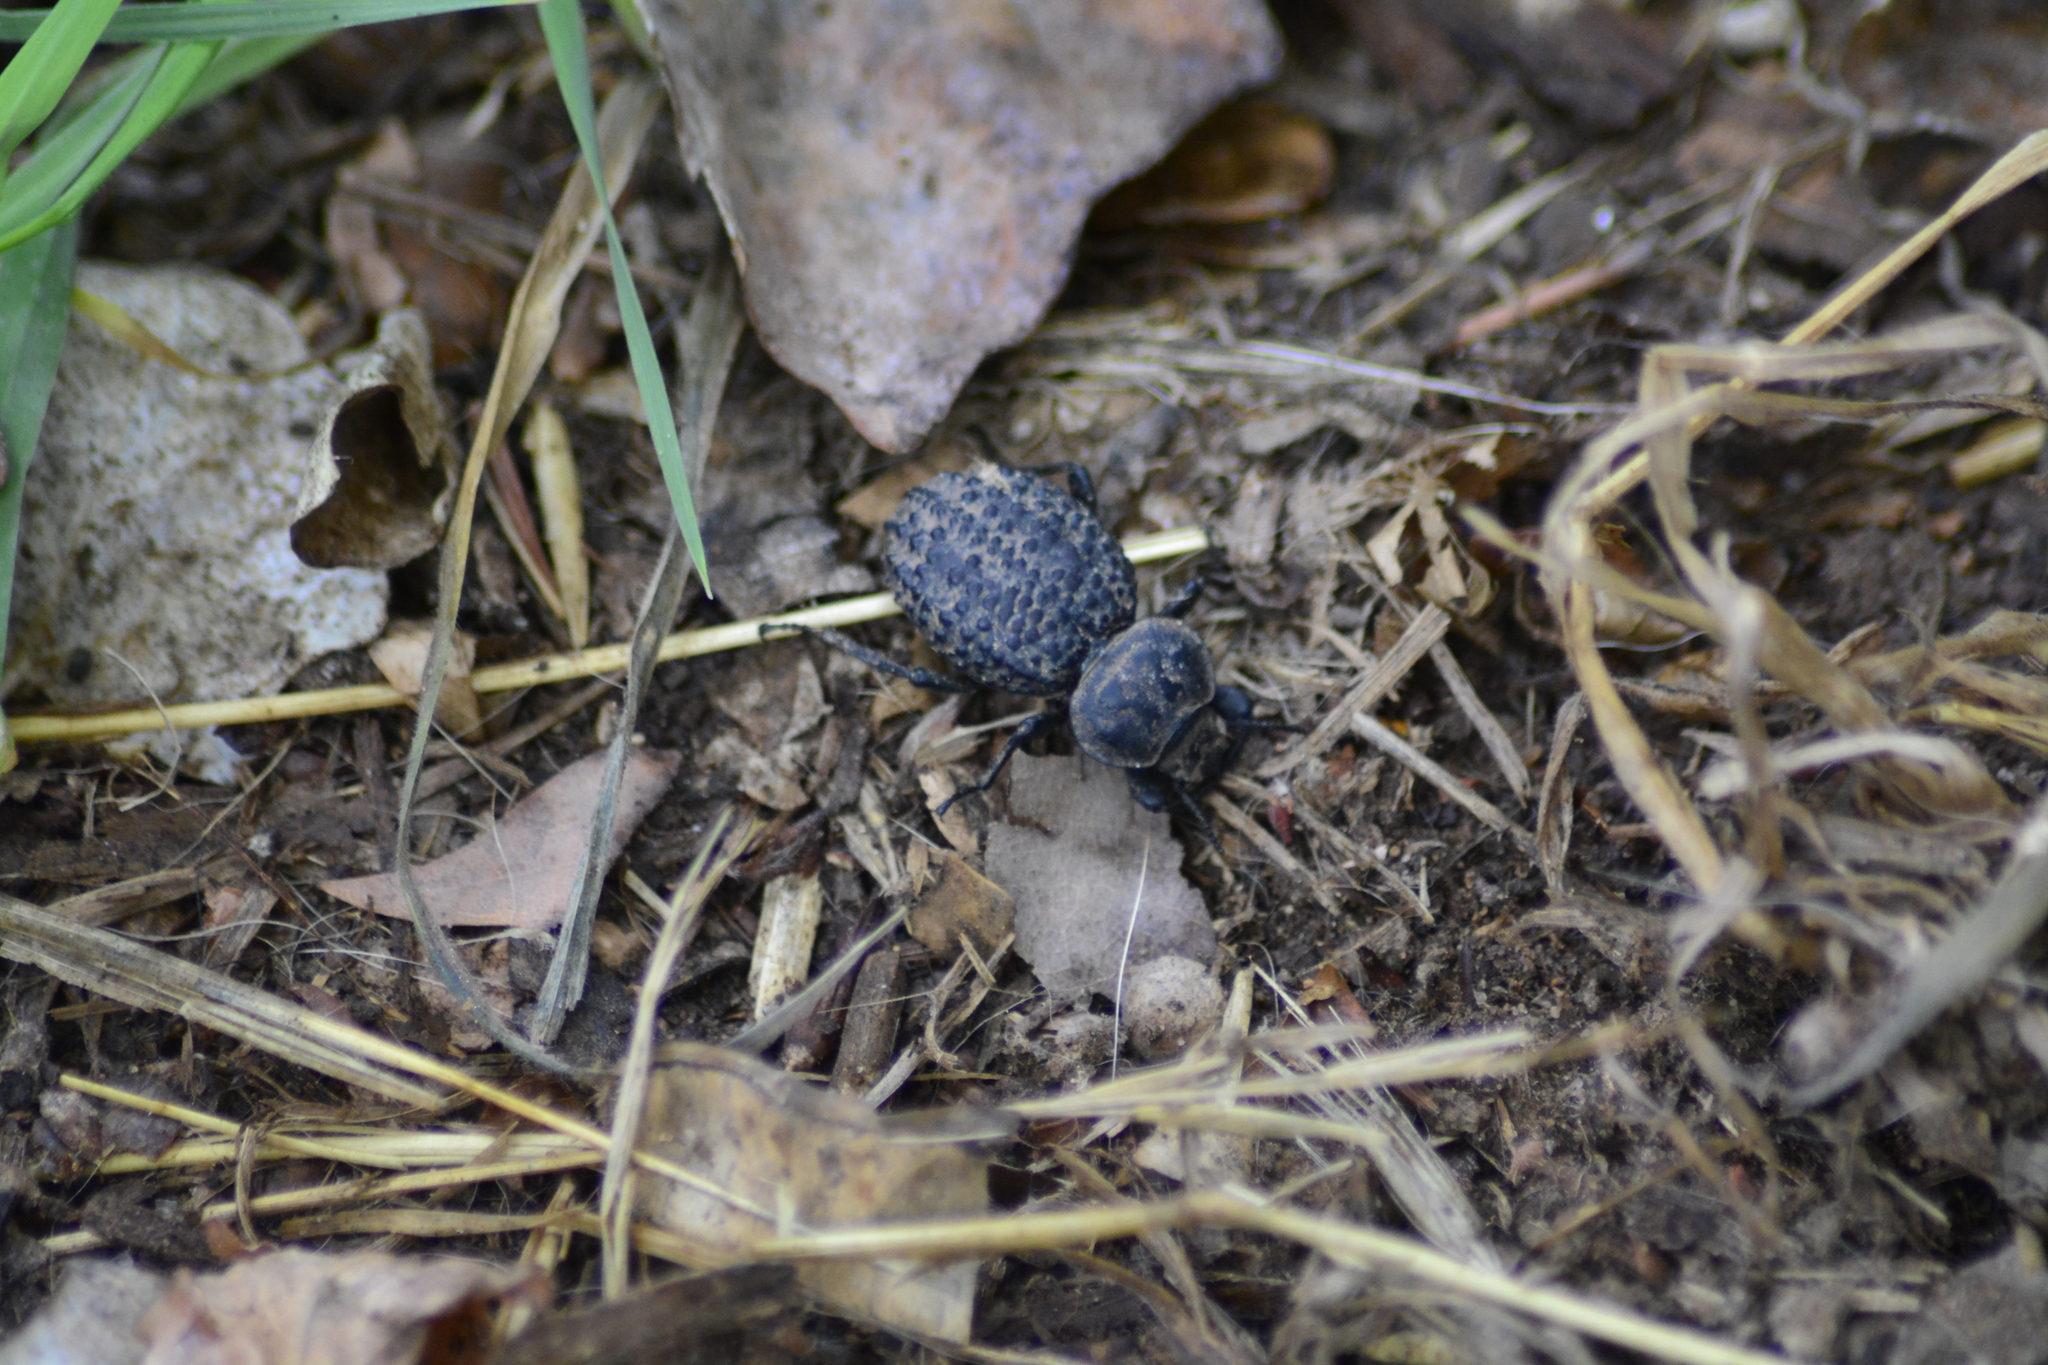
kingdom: Animalia
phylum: Arthropoda
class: Insecta
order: Coleoptera
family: Tenebrionidae
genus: Scotobius
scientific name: Scotobius pilularius
